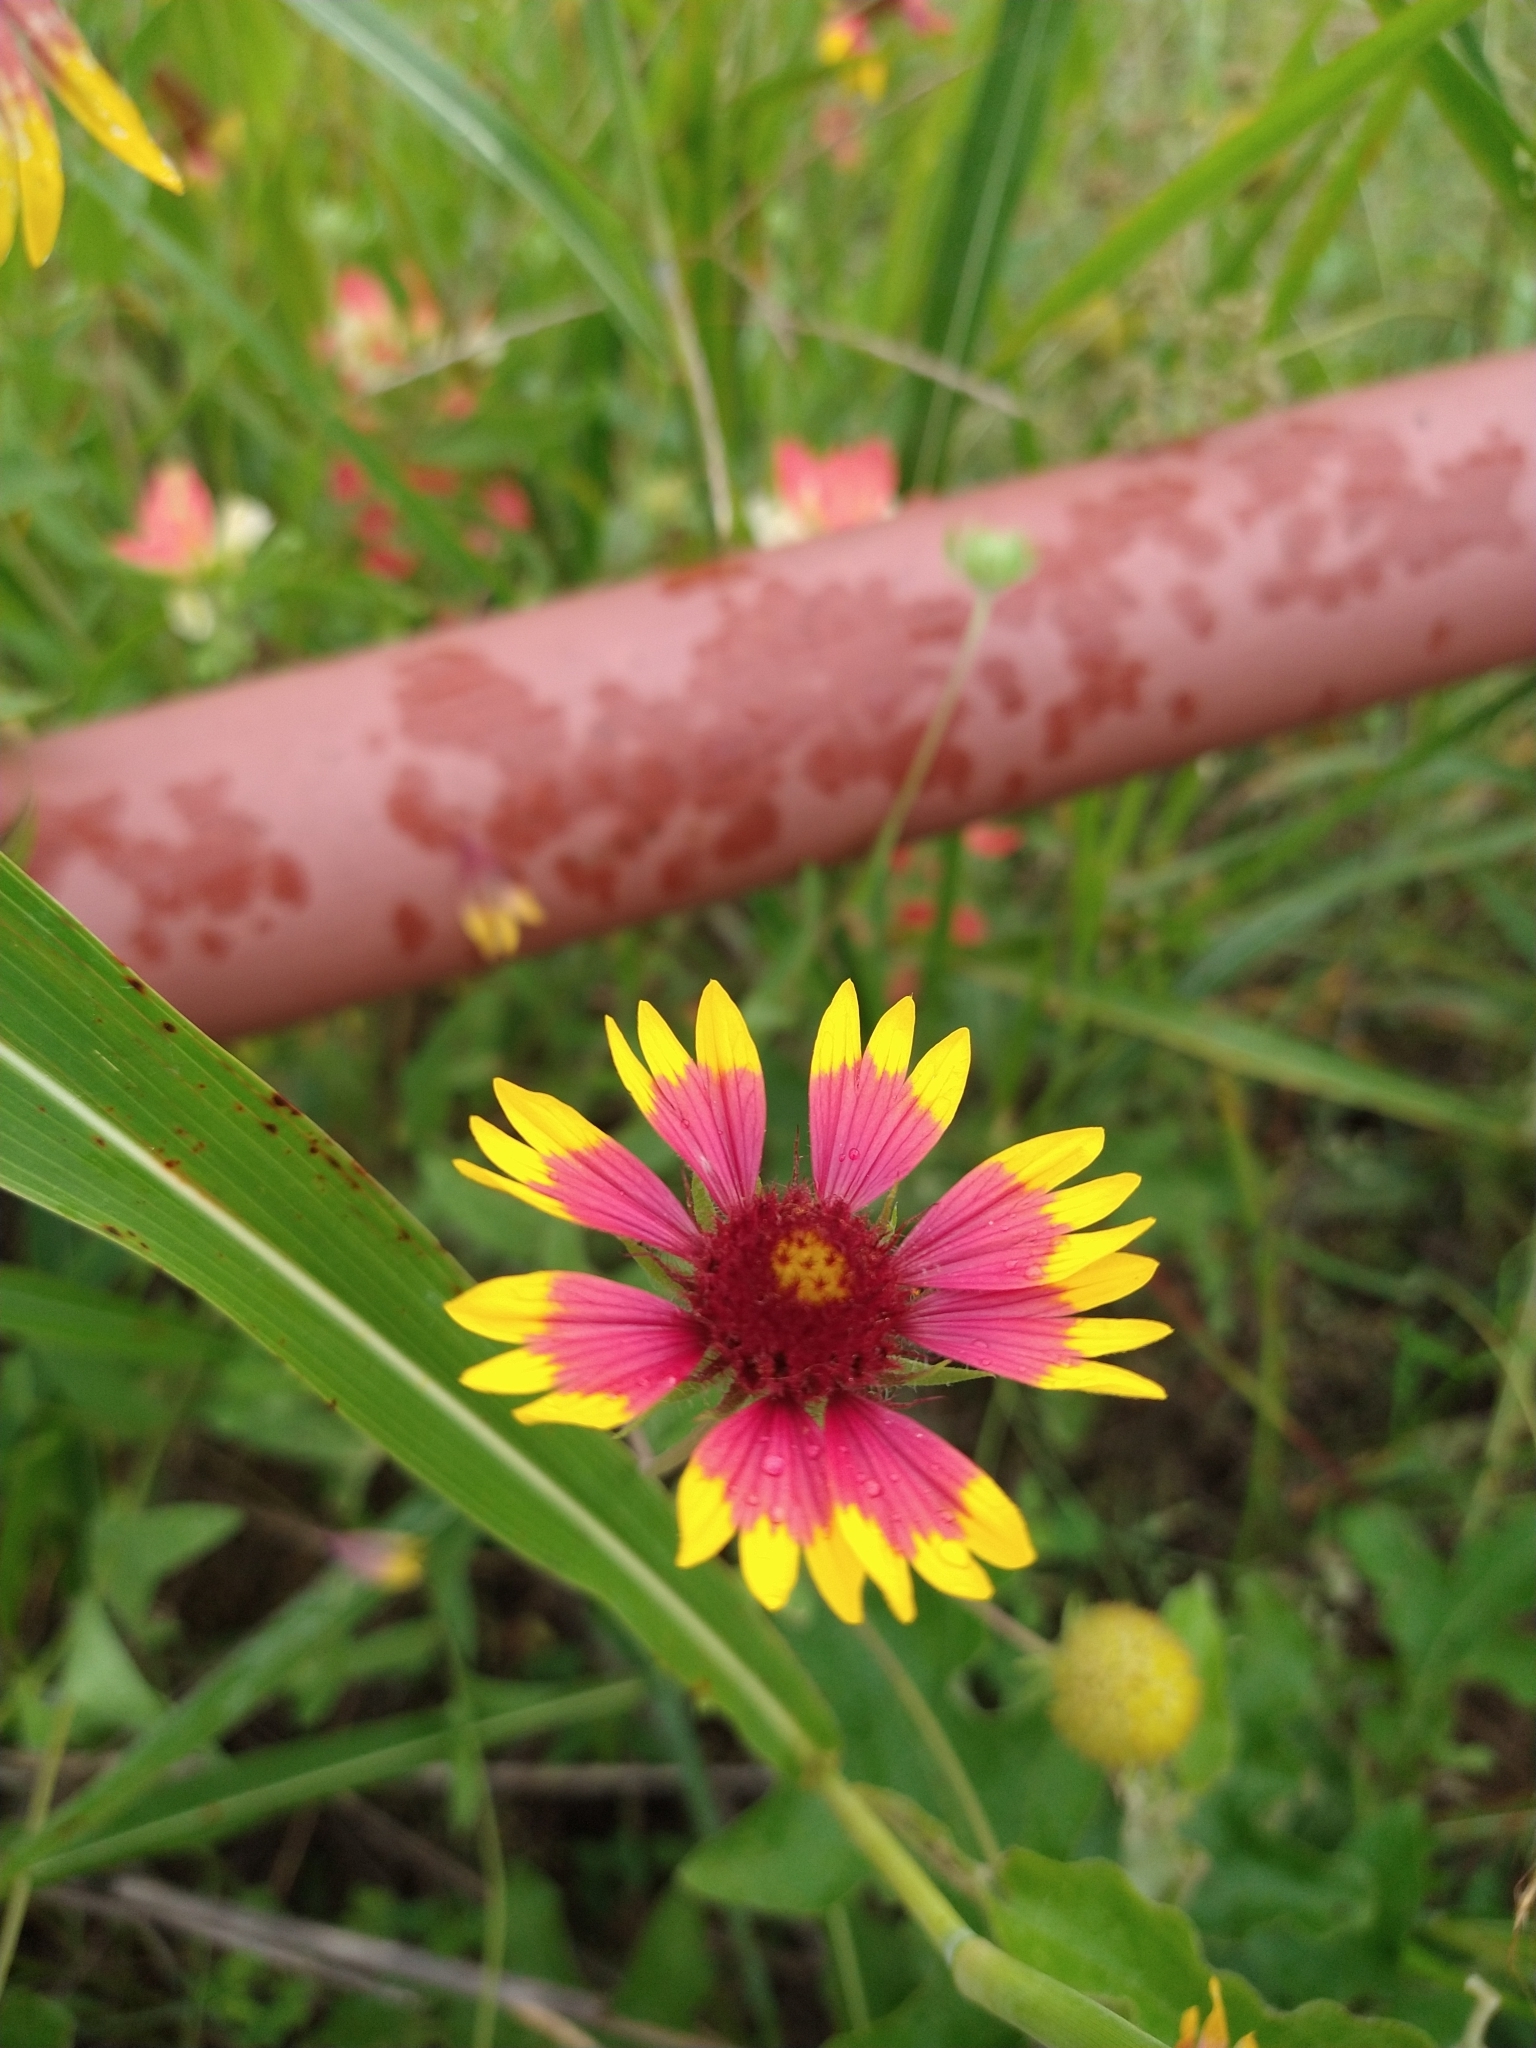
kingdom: Plantae
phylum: Tracheophyta
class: Magnoliopsida
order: Asterales
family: Asteraceae
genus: Gaillardia
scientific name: Gaillardia pulchella
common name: Firewheel
